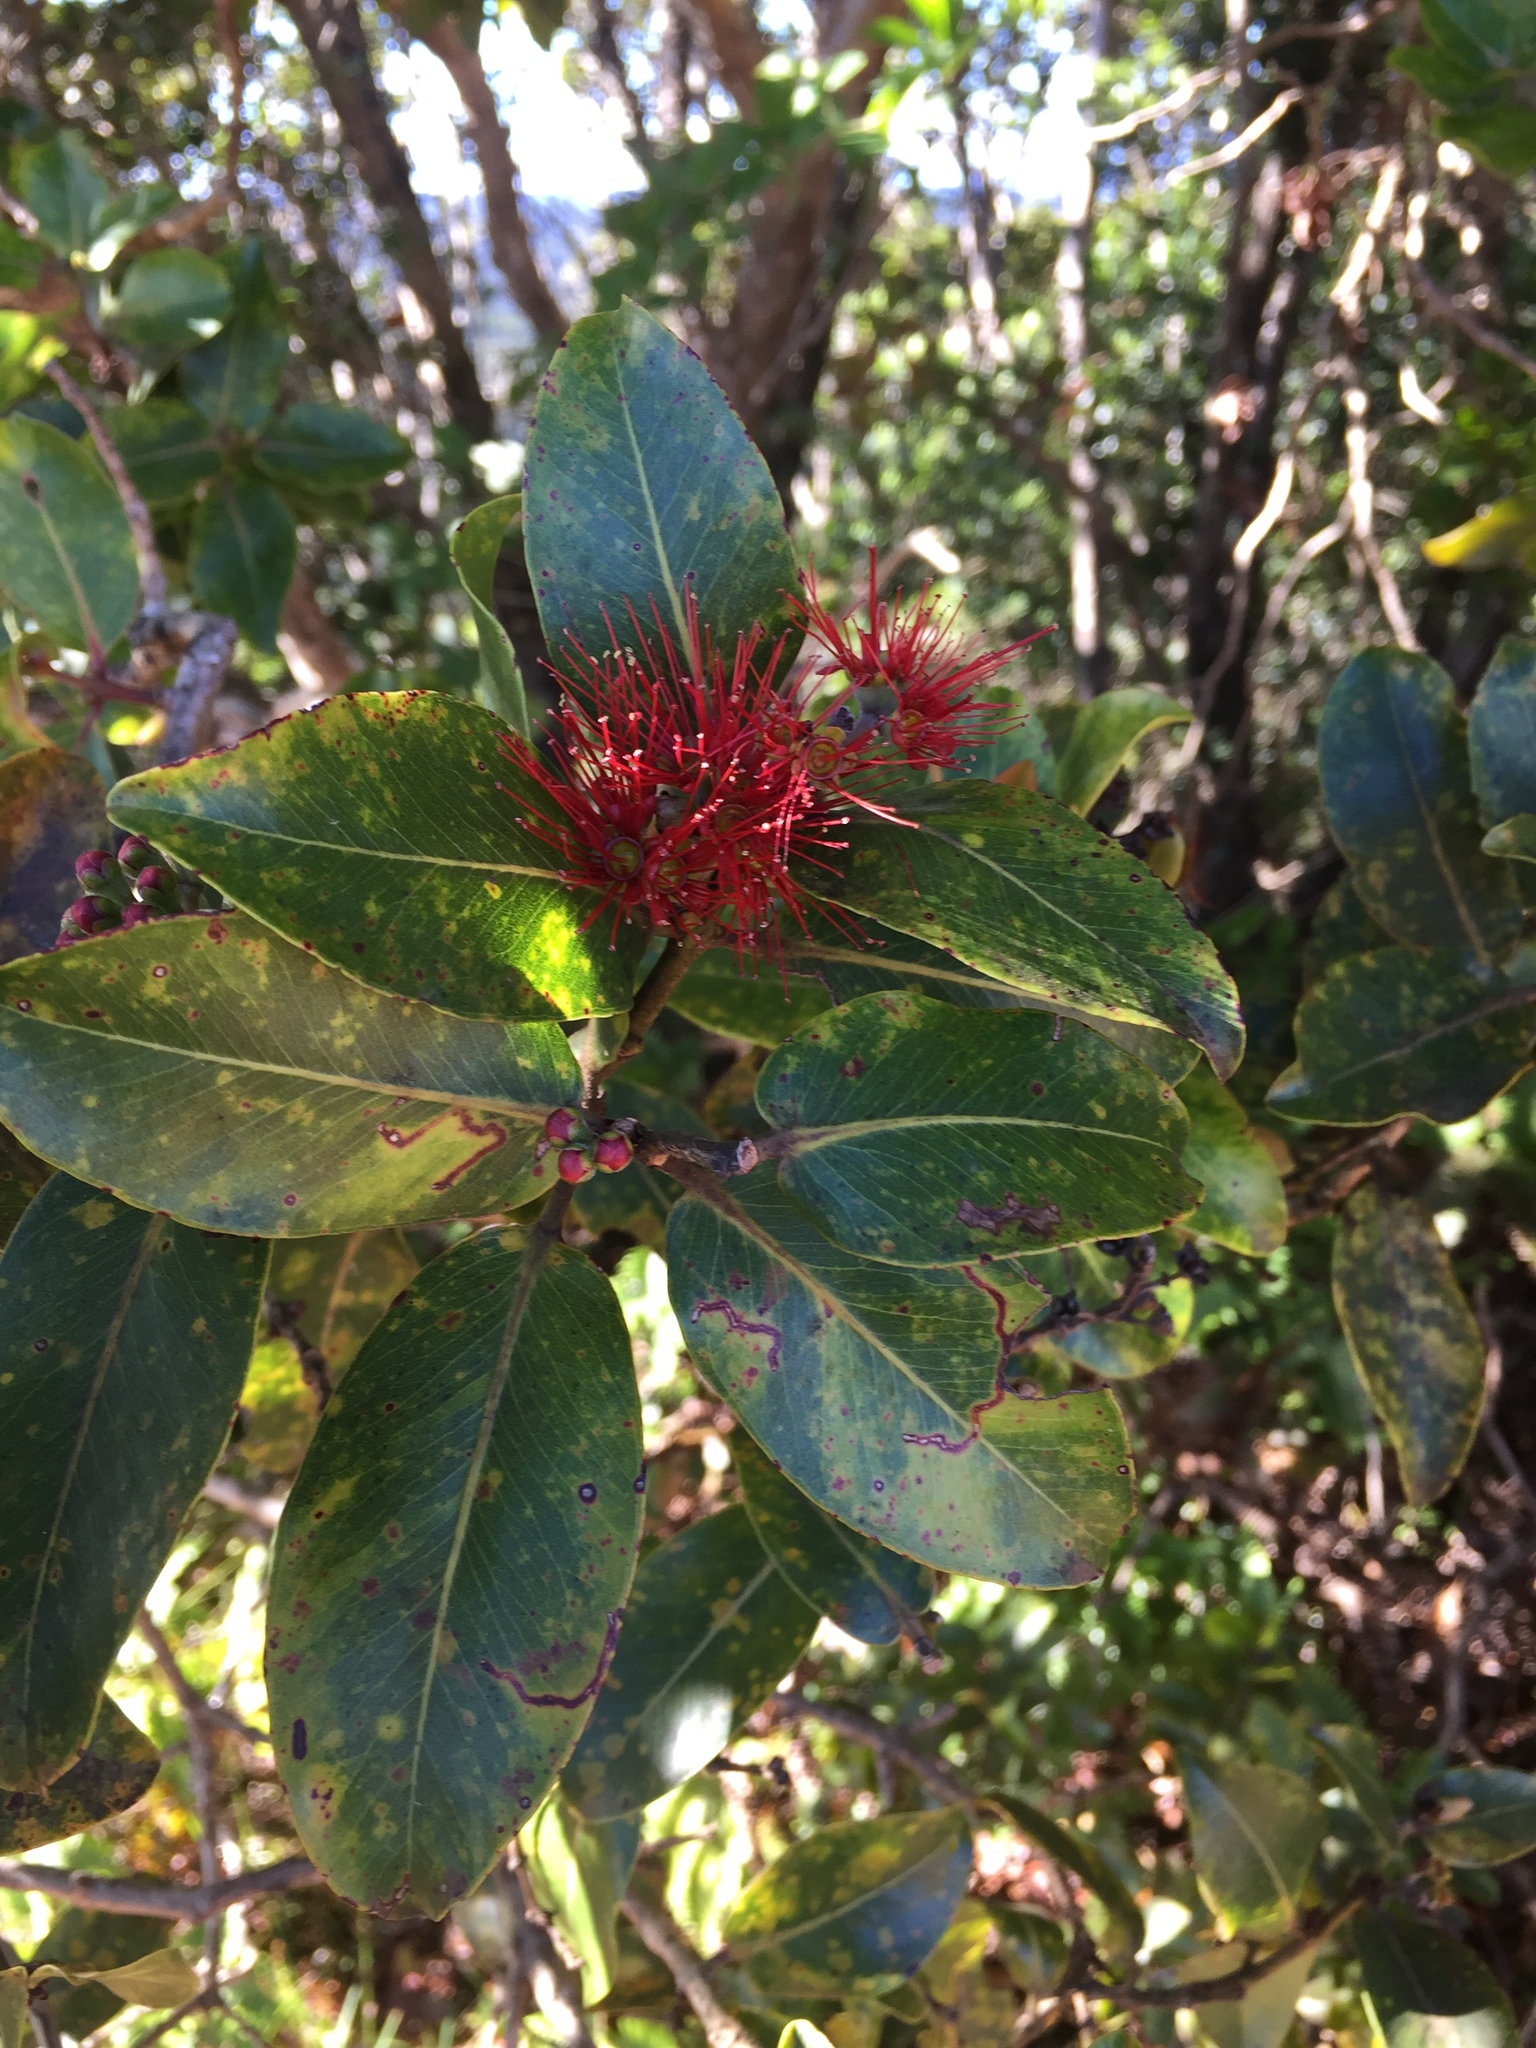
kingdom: Plantae
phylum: Tracheophyta
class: Magnoliopsida
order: Myrtales
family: Myrtaceae
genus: Metrosideros
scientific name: Metrosideros polymorpha
